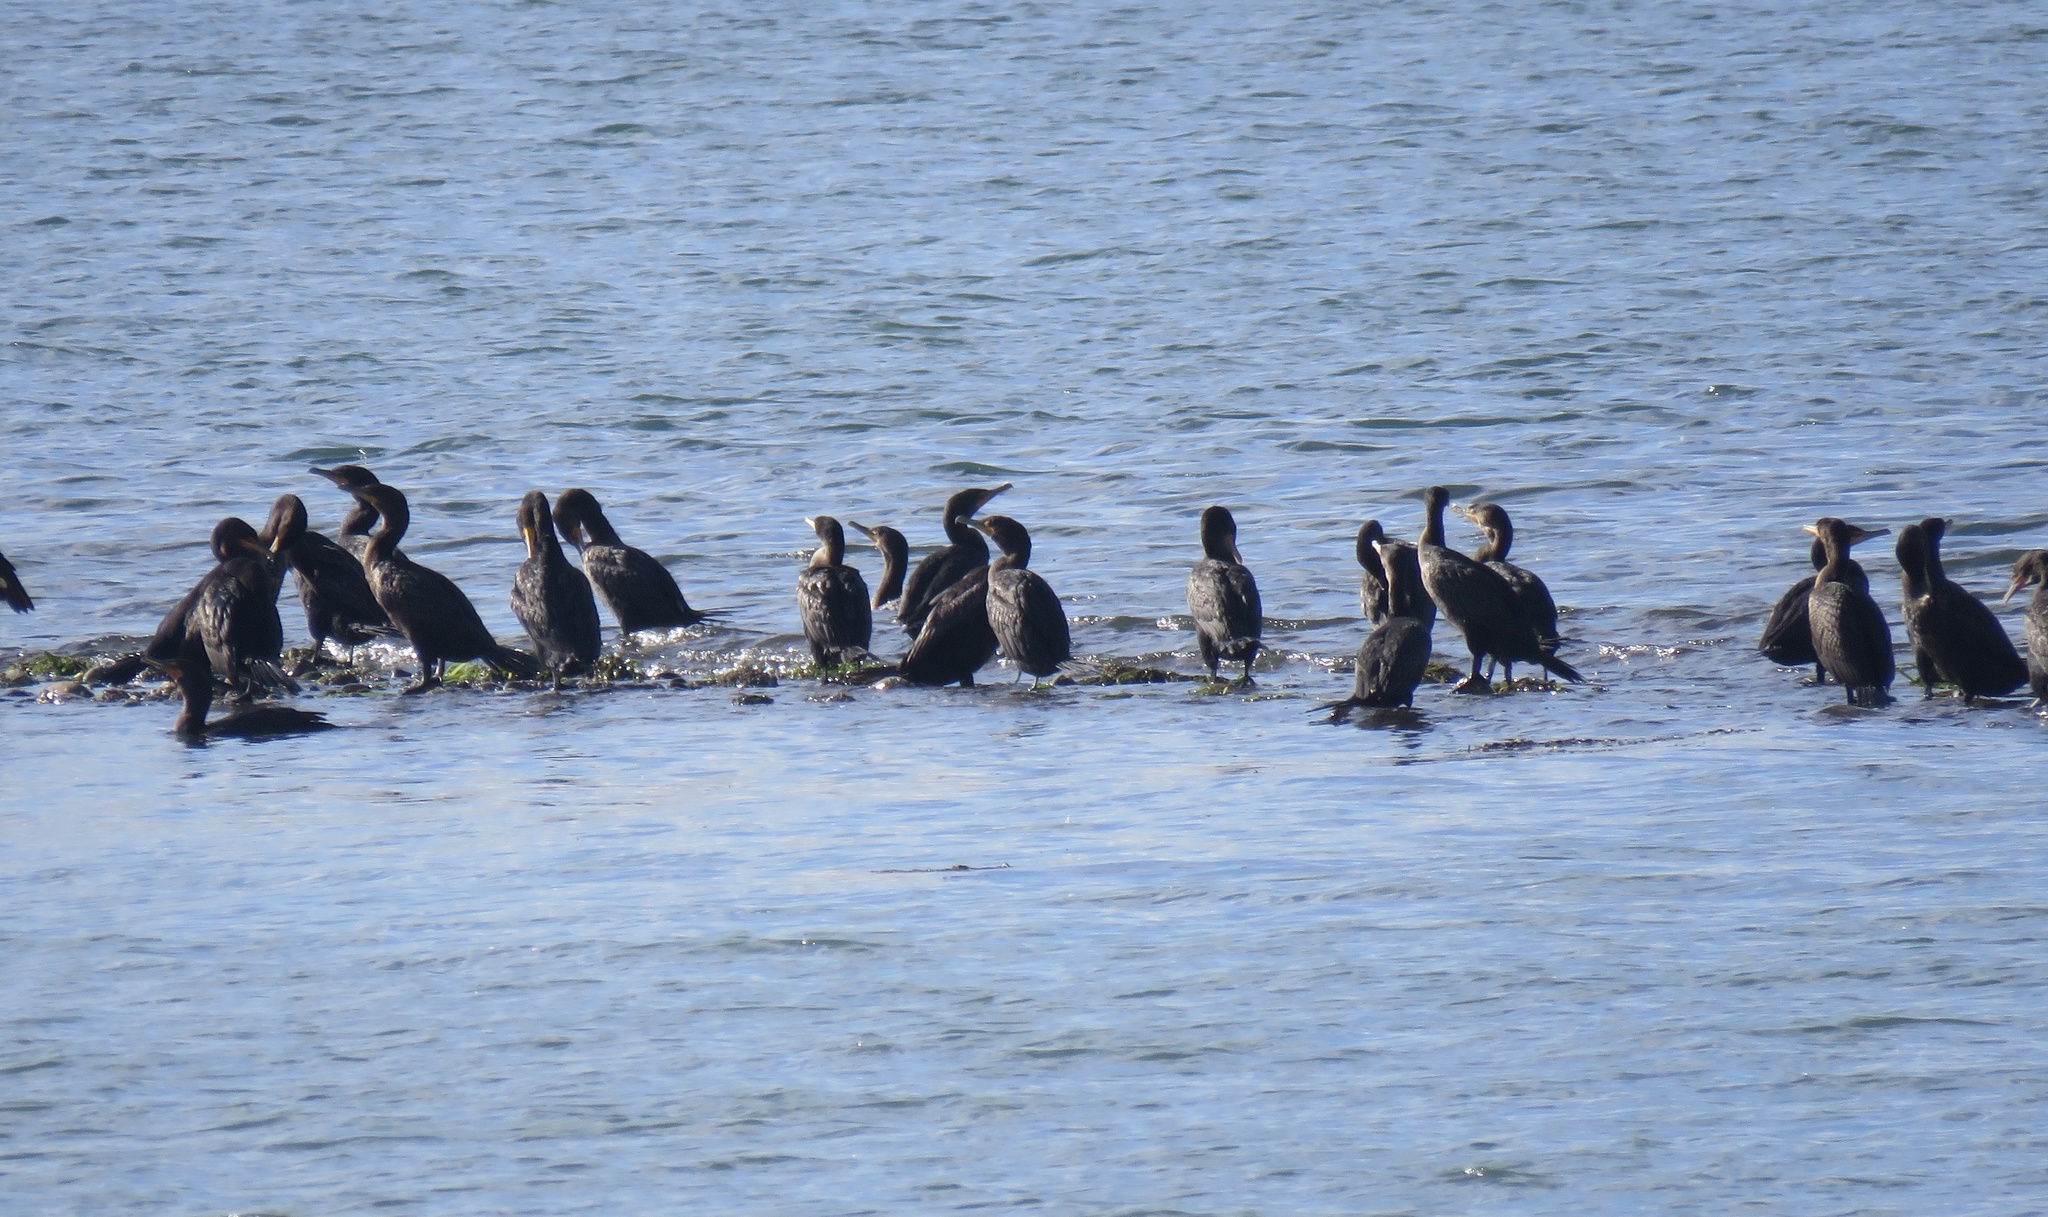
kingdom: Animalia
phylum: Chordata
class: Aves
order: Suliformes
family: Phalacrocoracidae
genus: Phalacrocorax
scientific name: Phalacrocorax auritus
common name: Double-crested cormorant
